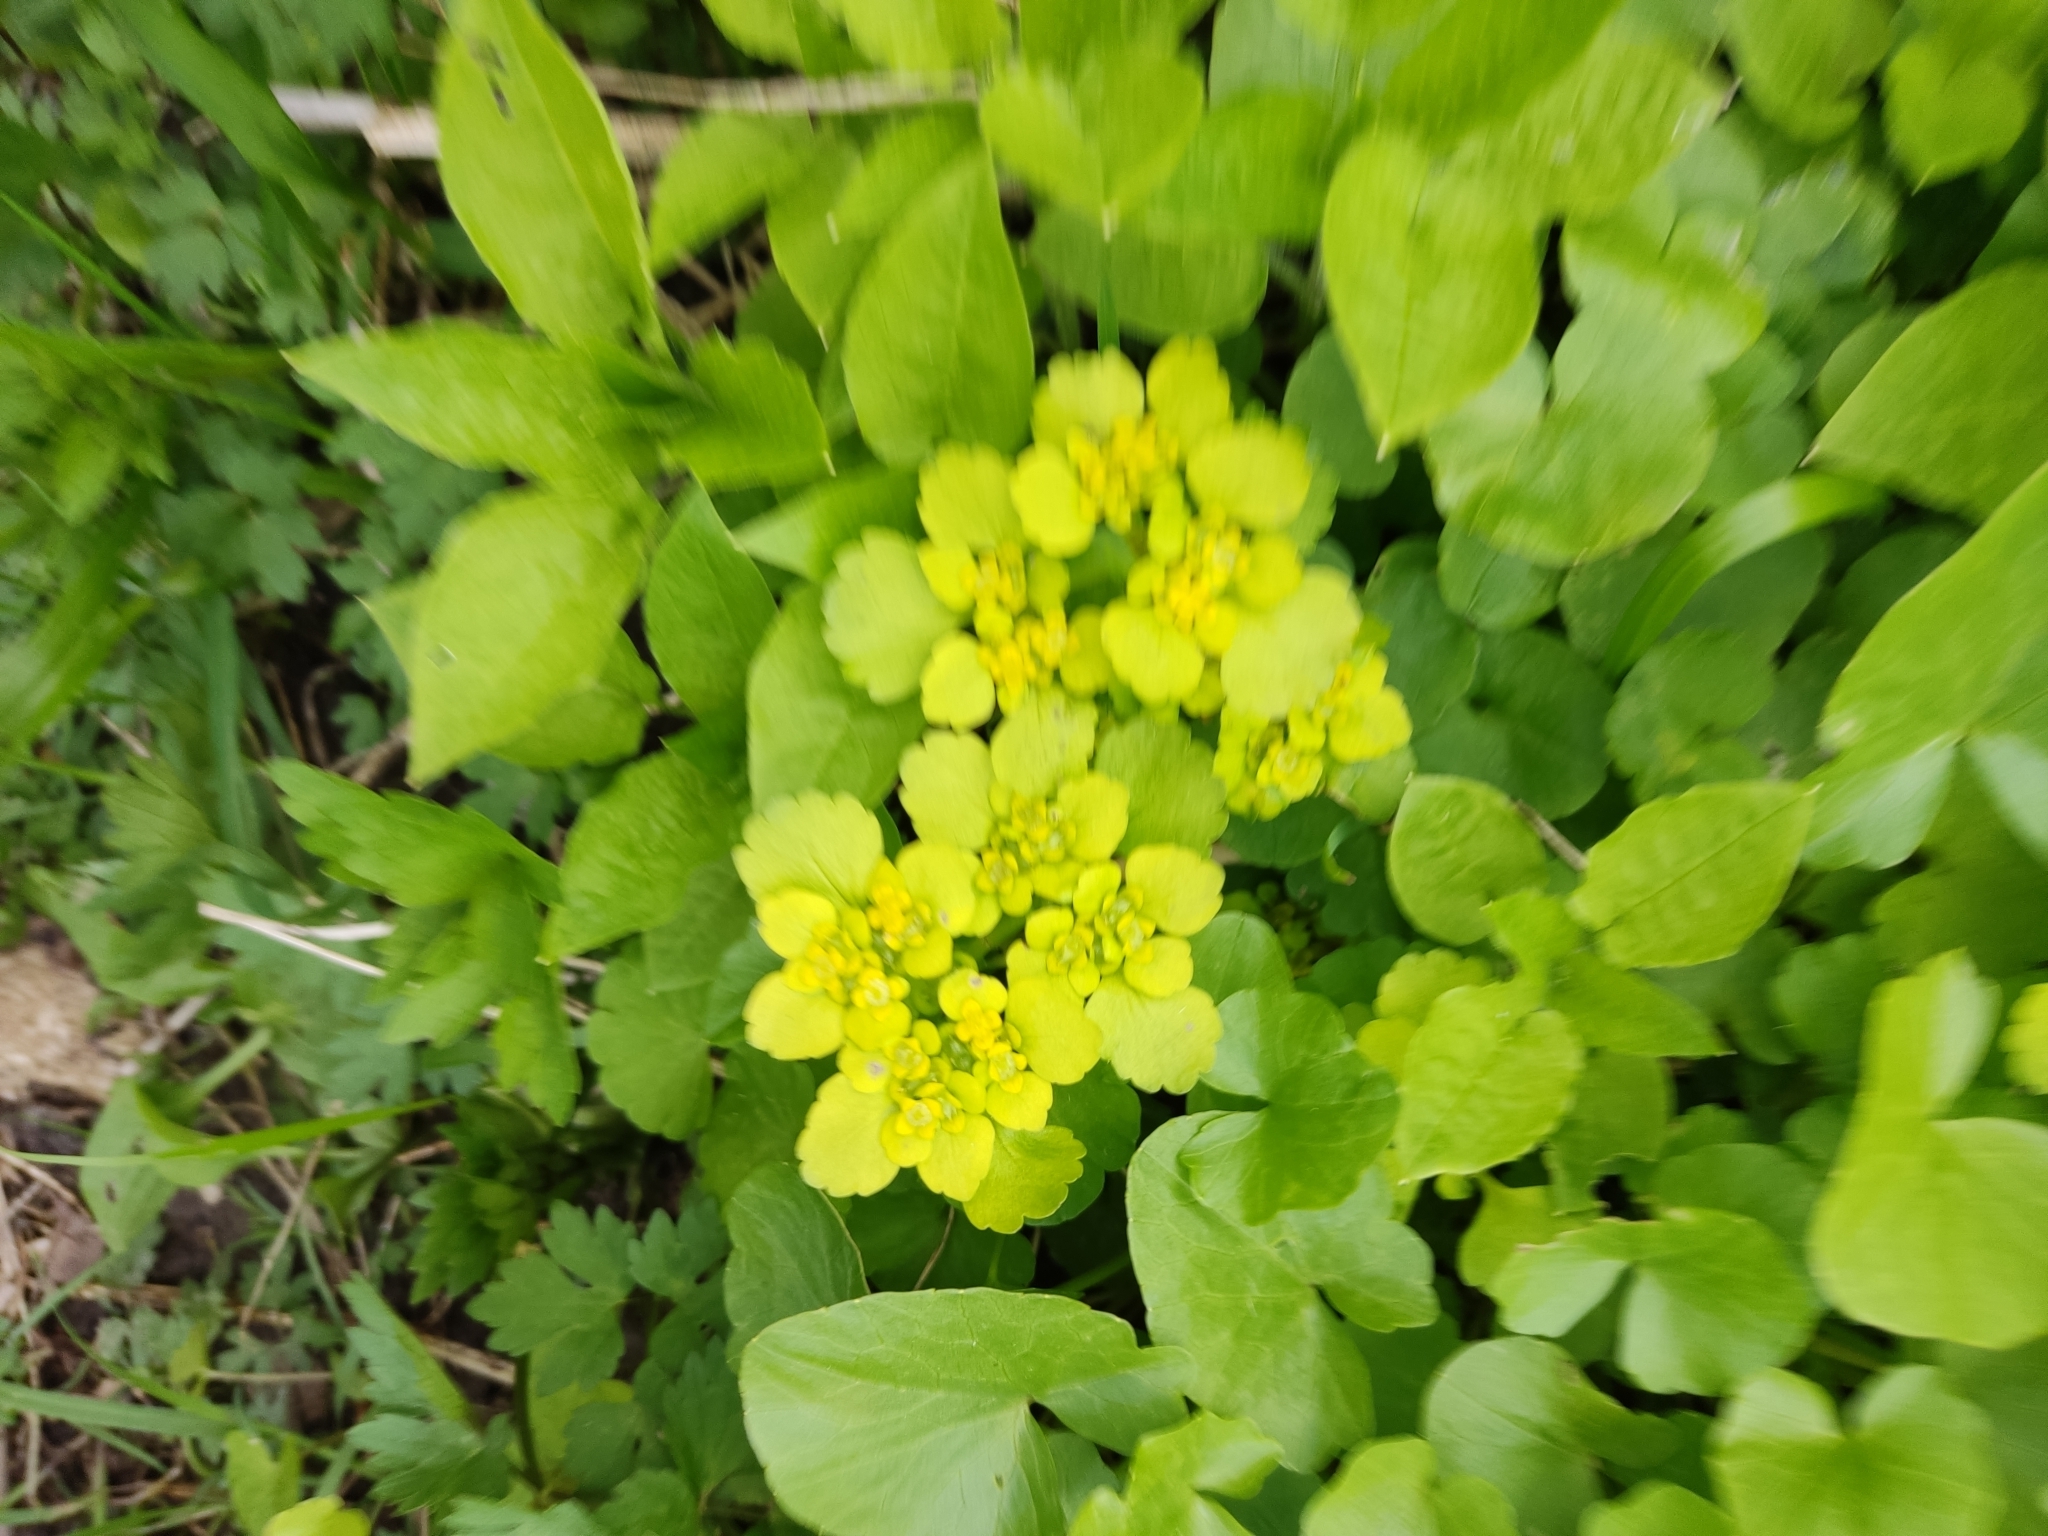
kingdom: Plantae
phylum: Tracheophyta
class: Magnoliopsida
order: Saxifragales
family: Saxifragaceae
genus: Chrysosplenium
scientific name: Chrysosplenium alternifolium
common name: Alternate-leaved golden-saxifrage
